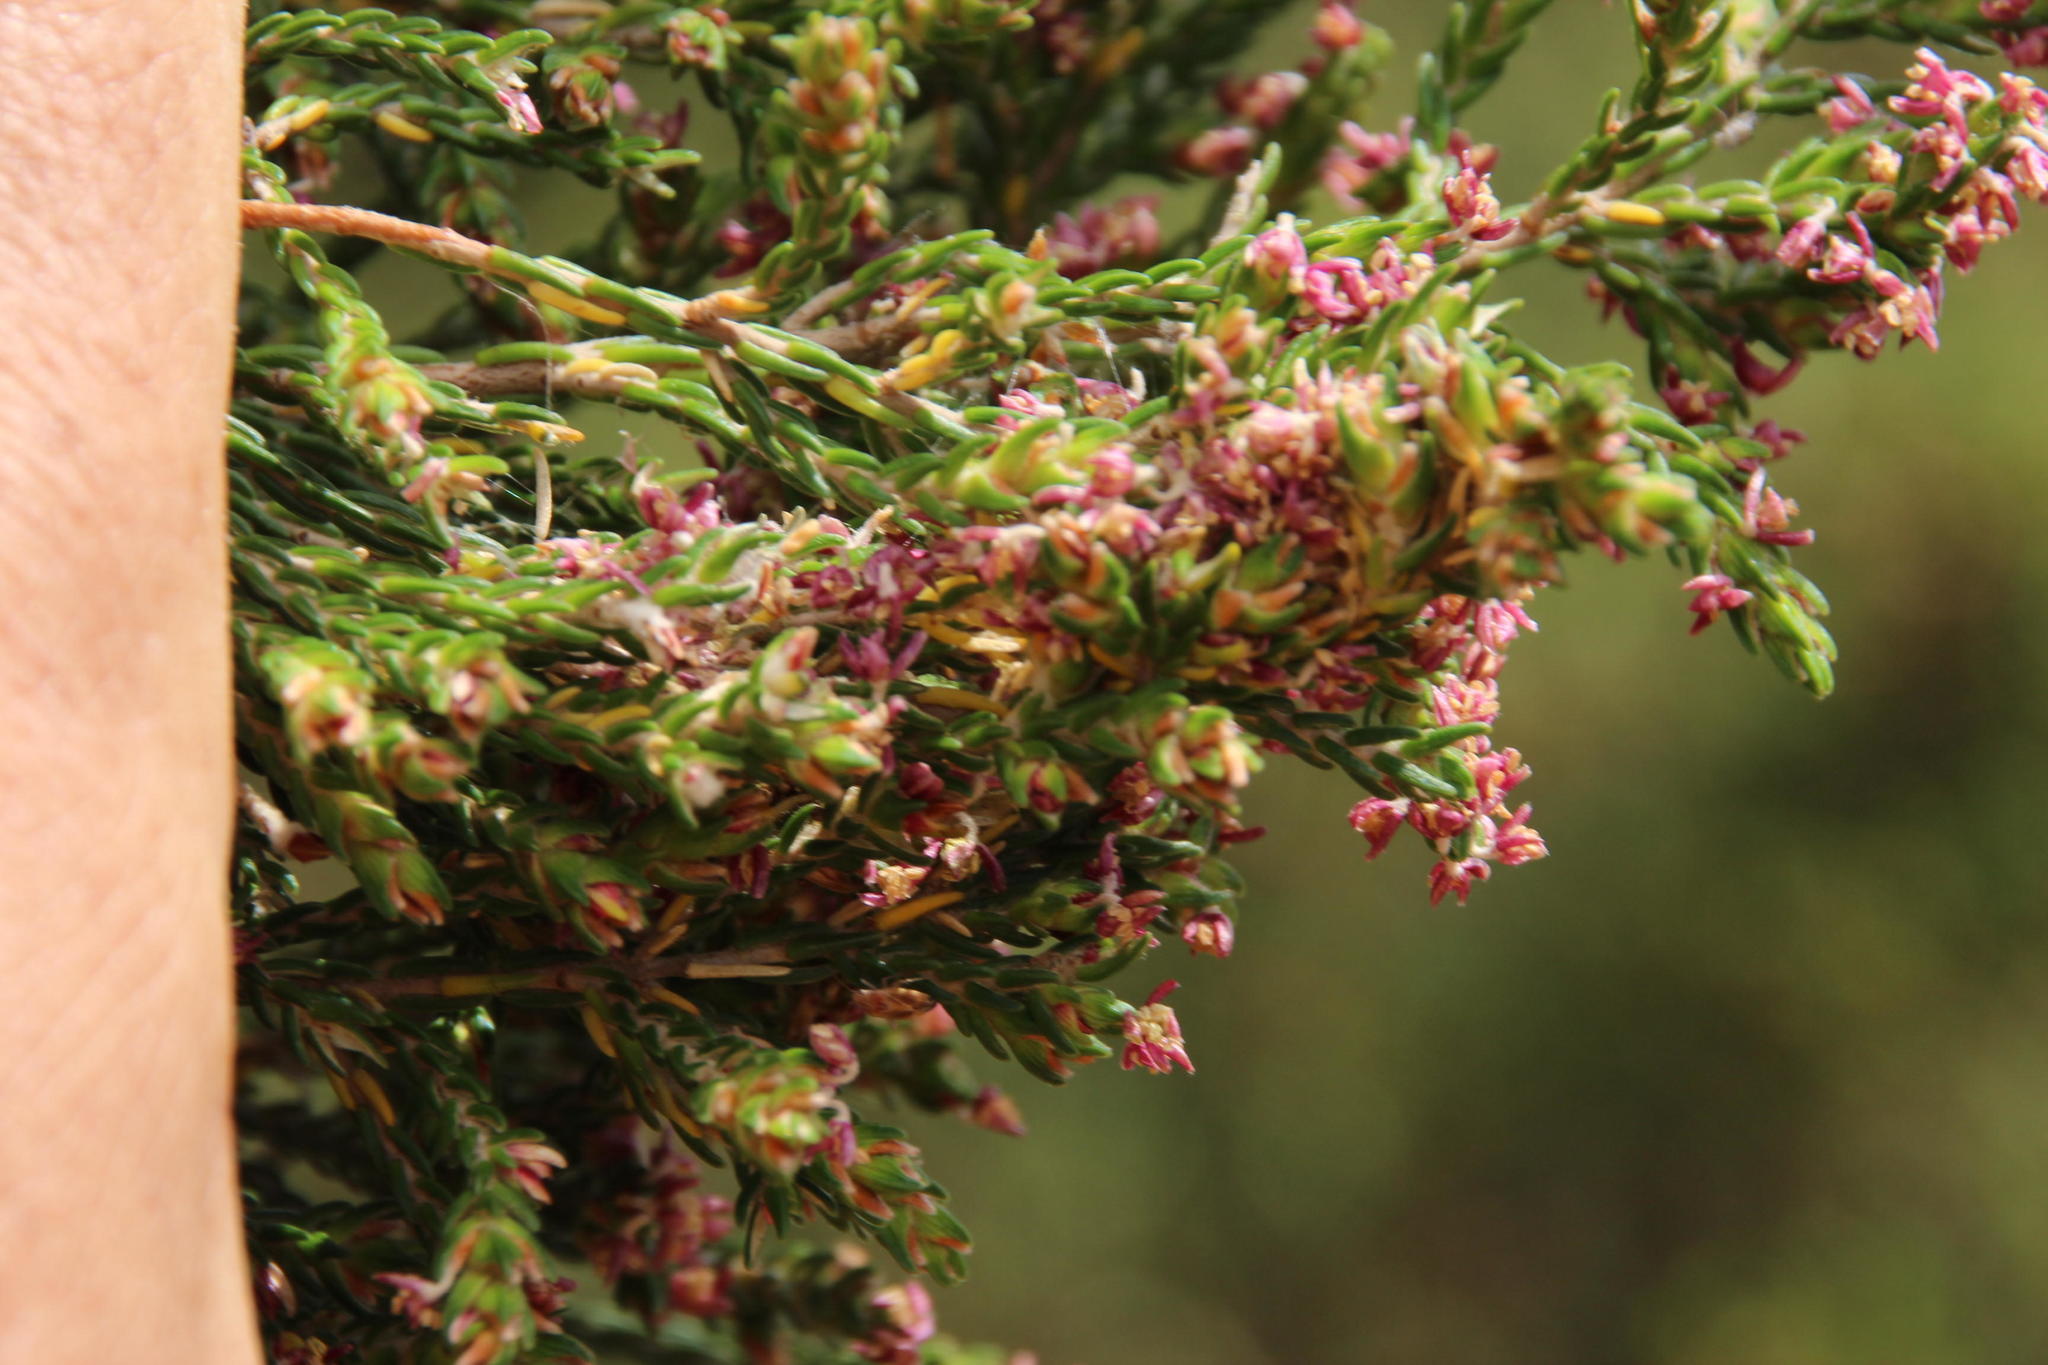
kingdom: Plantae
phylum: Tracheophyta
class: Magnoliopsida
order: Malvales
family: Thymelaeaceae
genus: Passerina
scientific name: Passerina corymbosa
